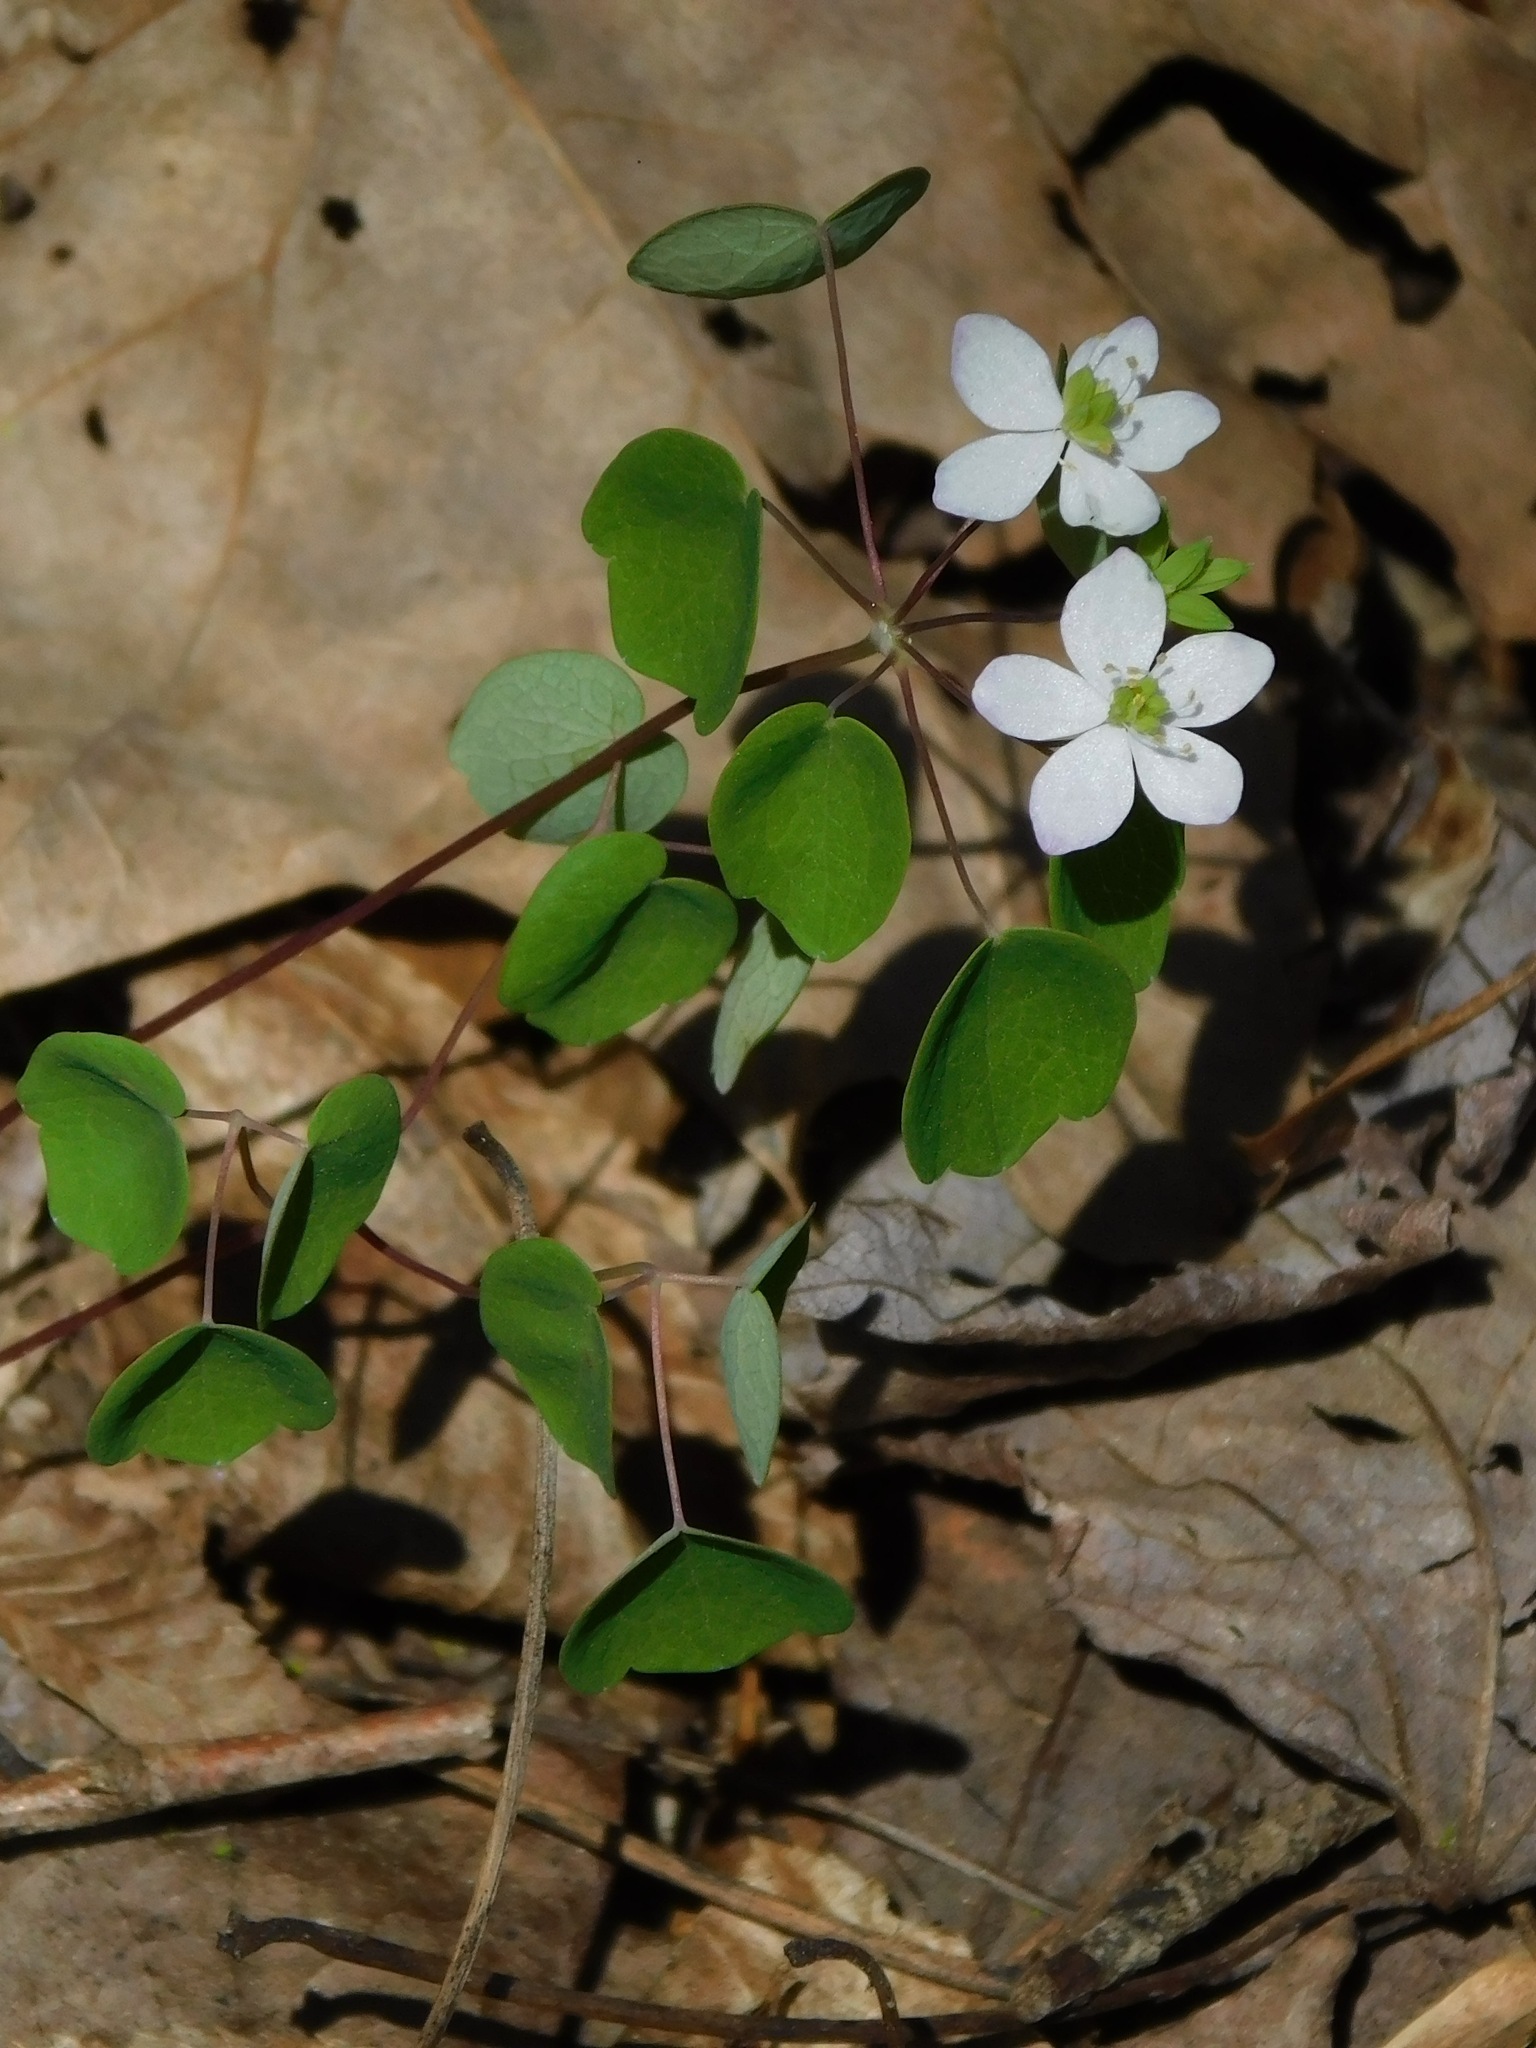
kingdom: Plantae
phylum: Tracheophyta
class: Magnoliopsida
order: Ranunculales
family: Ranunculaceae
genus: Thalictrum
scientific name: Thalictrum thalictroides
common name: Rue-anemone
